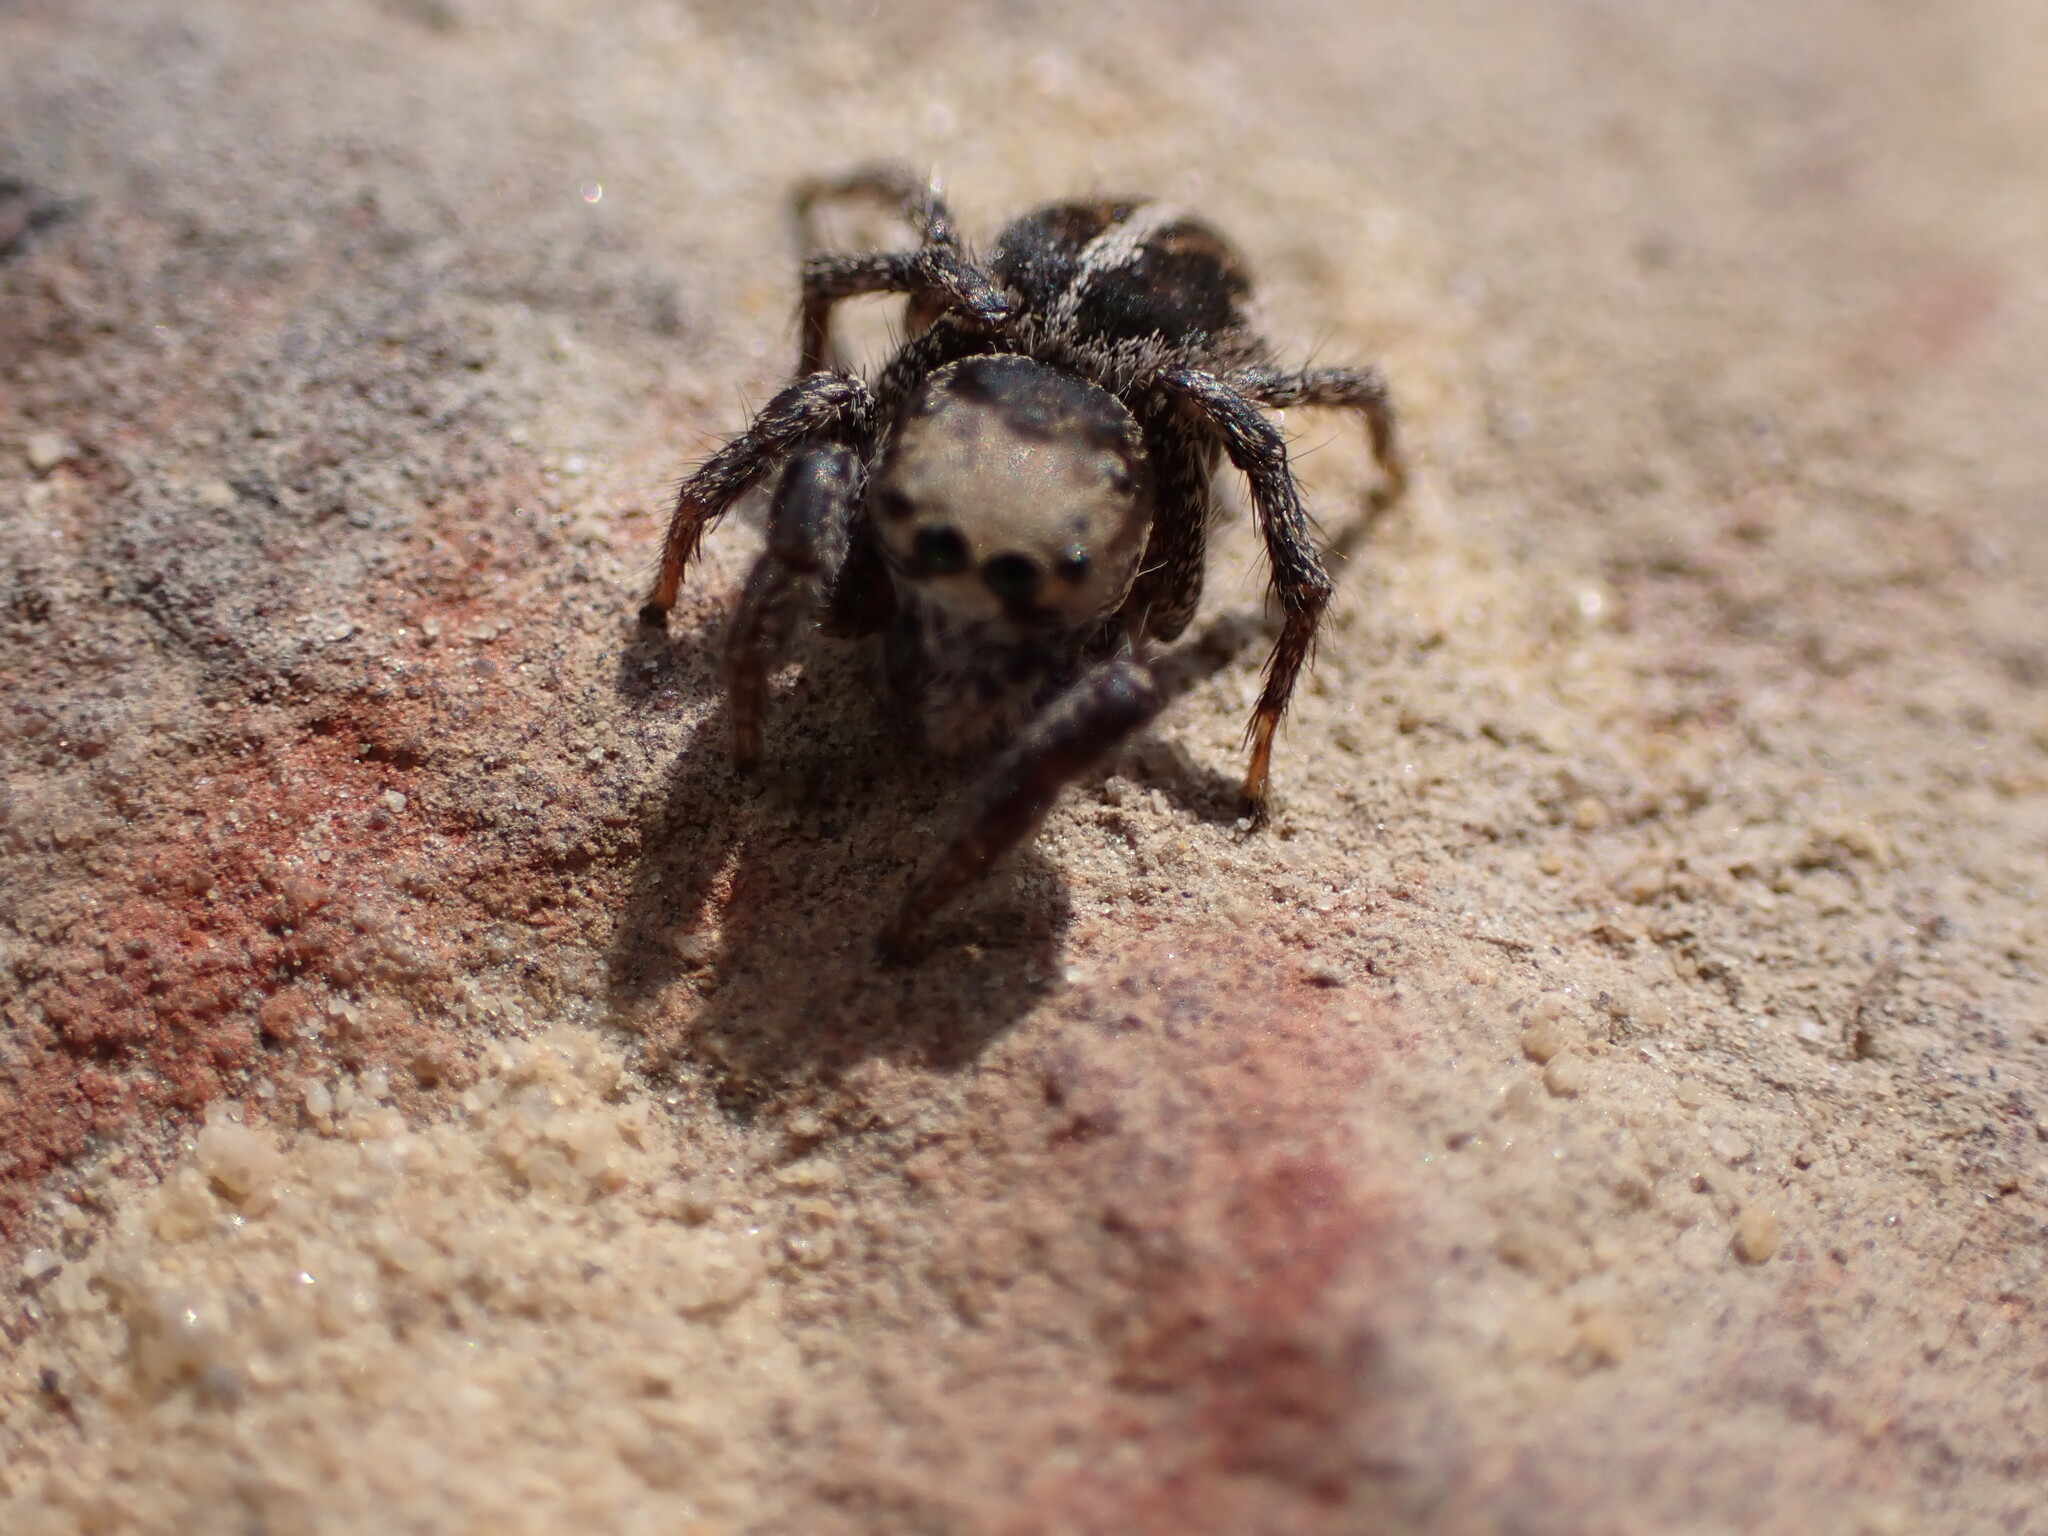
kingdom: Animalia
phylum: Arthropoda
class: Arachnida
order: Araneae
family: Salticidae
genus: Habronattus
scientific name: Habronattus orbus
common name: Orbus paradise spider
